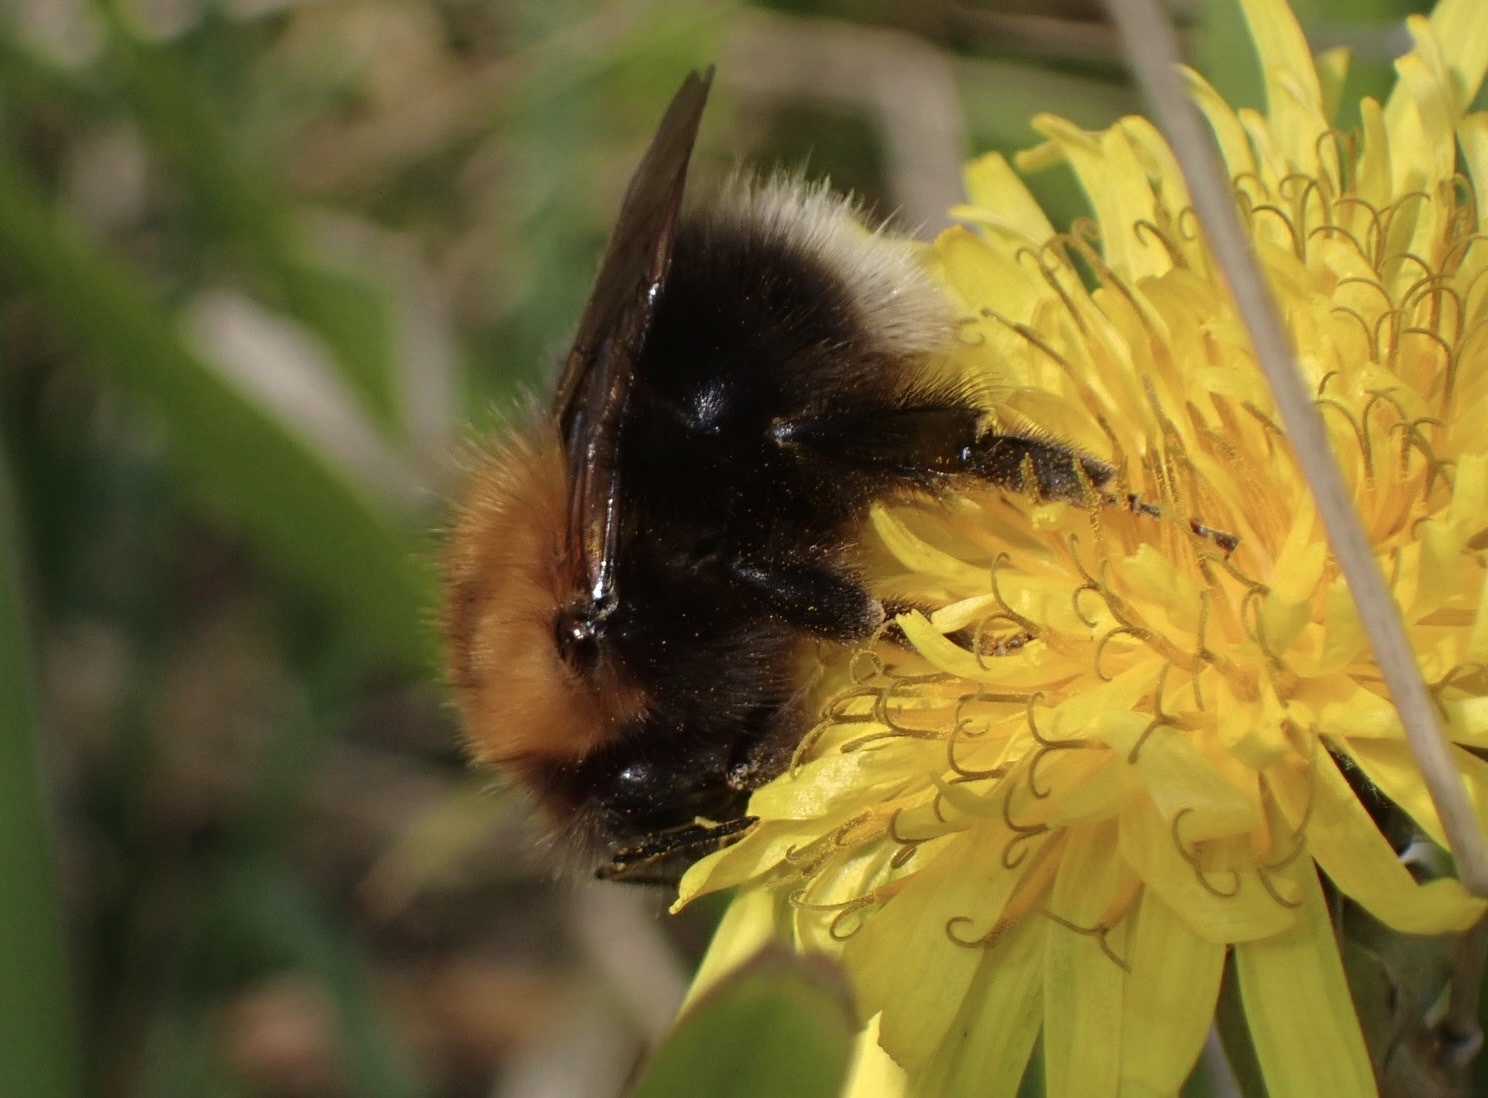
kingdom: Animalia
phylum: Arthropoda
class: Insecta
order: Hymenoptera
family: Apidae
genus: Bombus
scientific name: Bombus hypnorum
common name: New garden bumblebee
